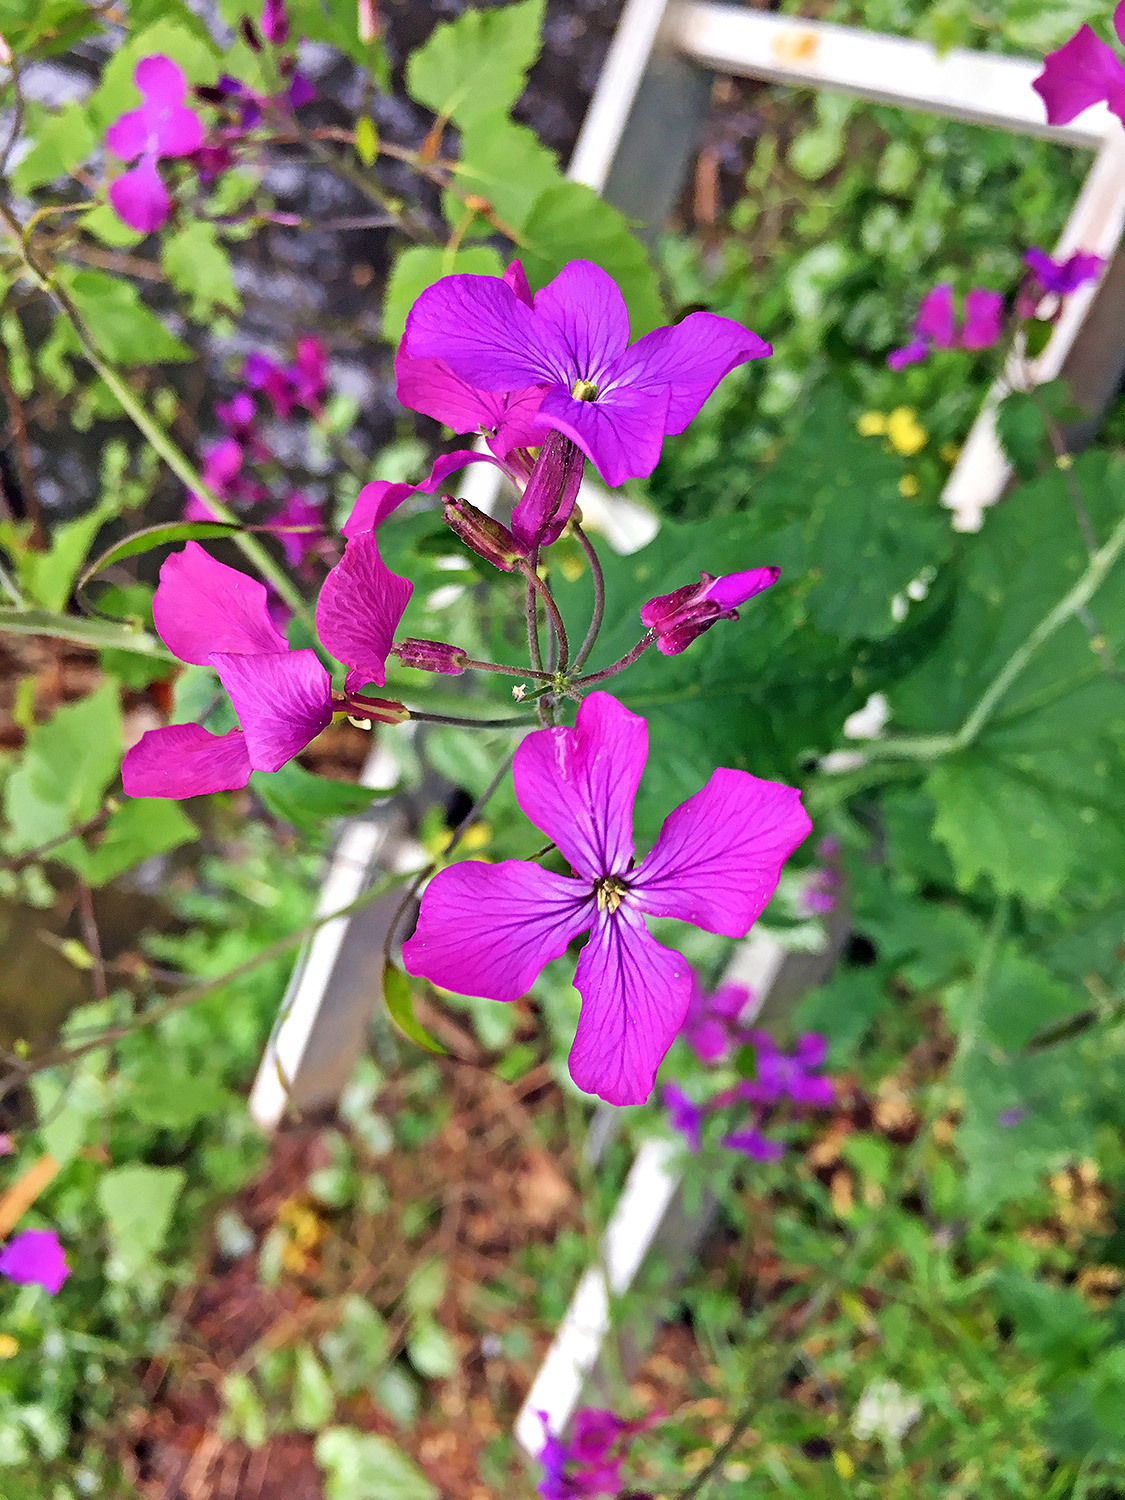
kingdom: Plantae
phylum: Tracheophyta
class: Magnoliopsida
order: Brassicales
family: Brassicaceae
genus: Lunaria
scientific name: Lunaria annua
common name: Honesty
